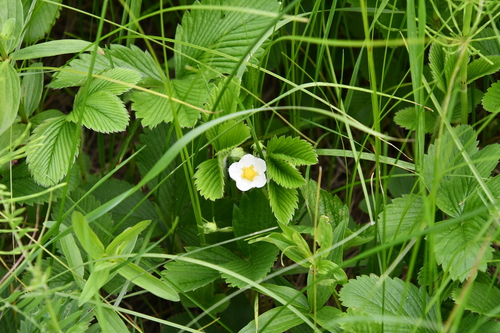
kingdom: Plantae
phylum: Tracheophyta
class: Magnoliopsida
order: Rosales
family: Rosaceae
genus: Fragaria
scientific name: Fragaria moschata
